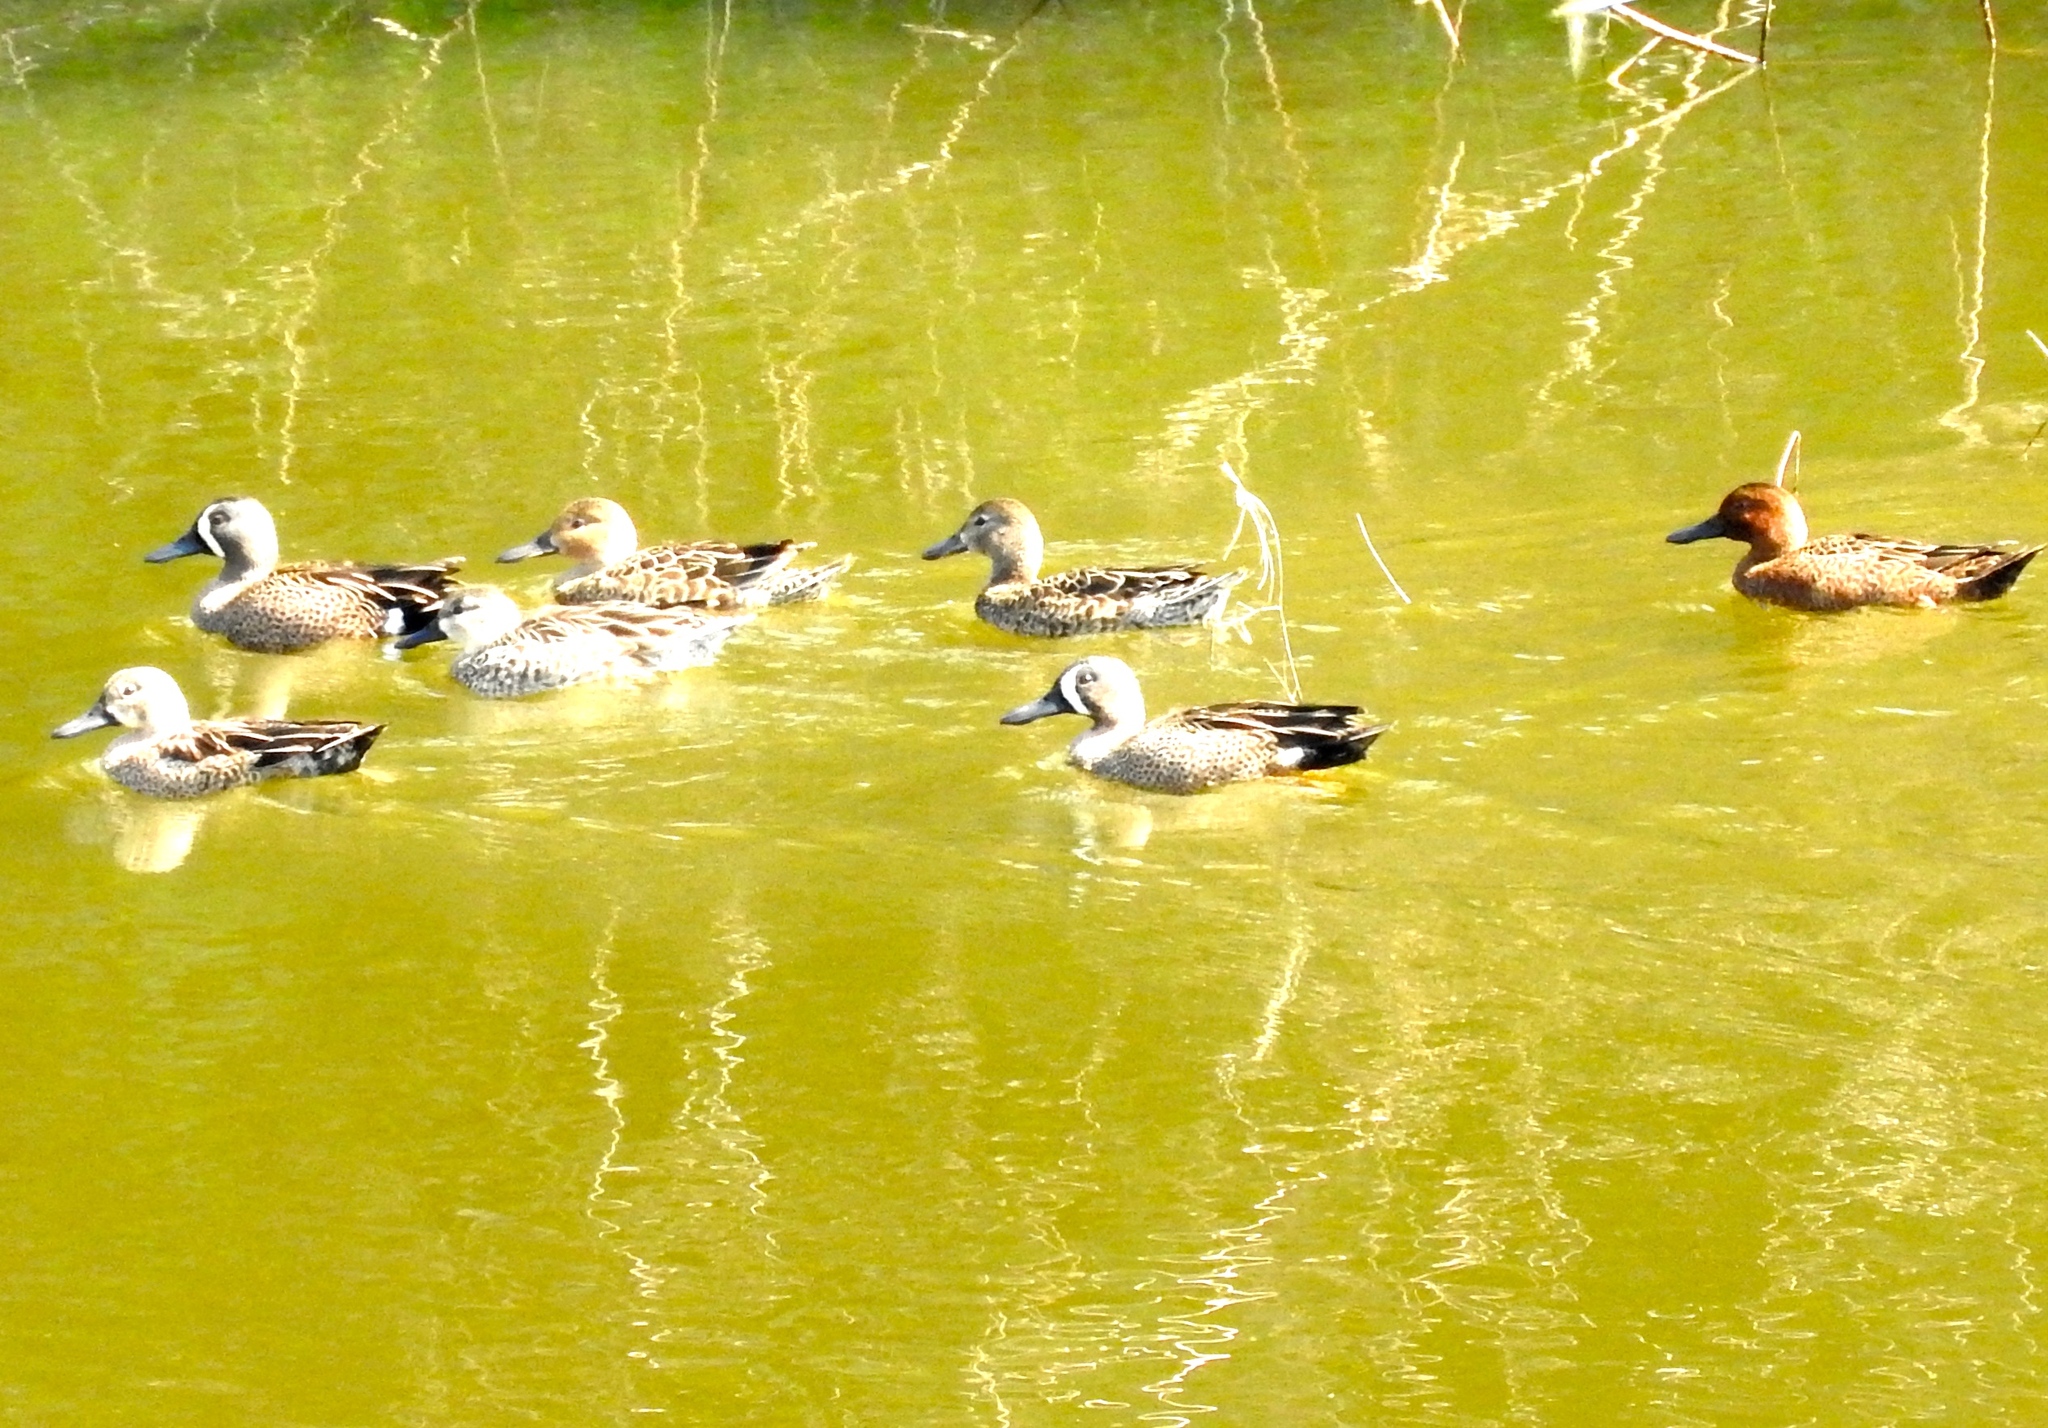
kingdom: Animalia
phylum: Chordata
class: Aves
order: Anseriformes
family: Anatidae
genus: Spatula
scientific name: Spatula cyanoptera
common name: Cinnamon teal
